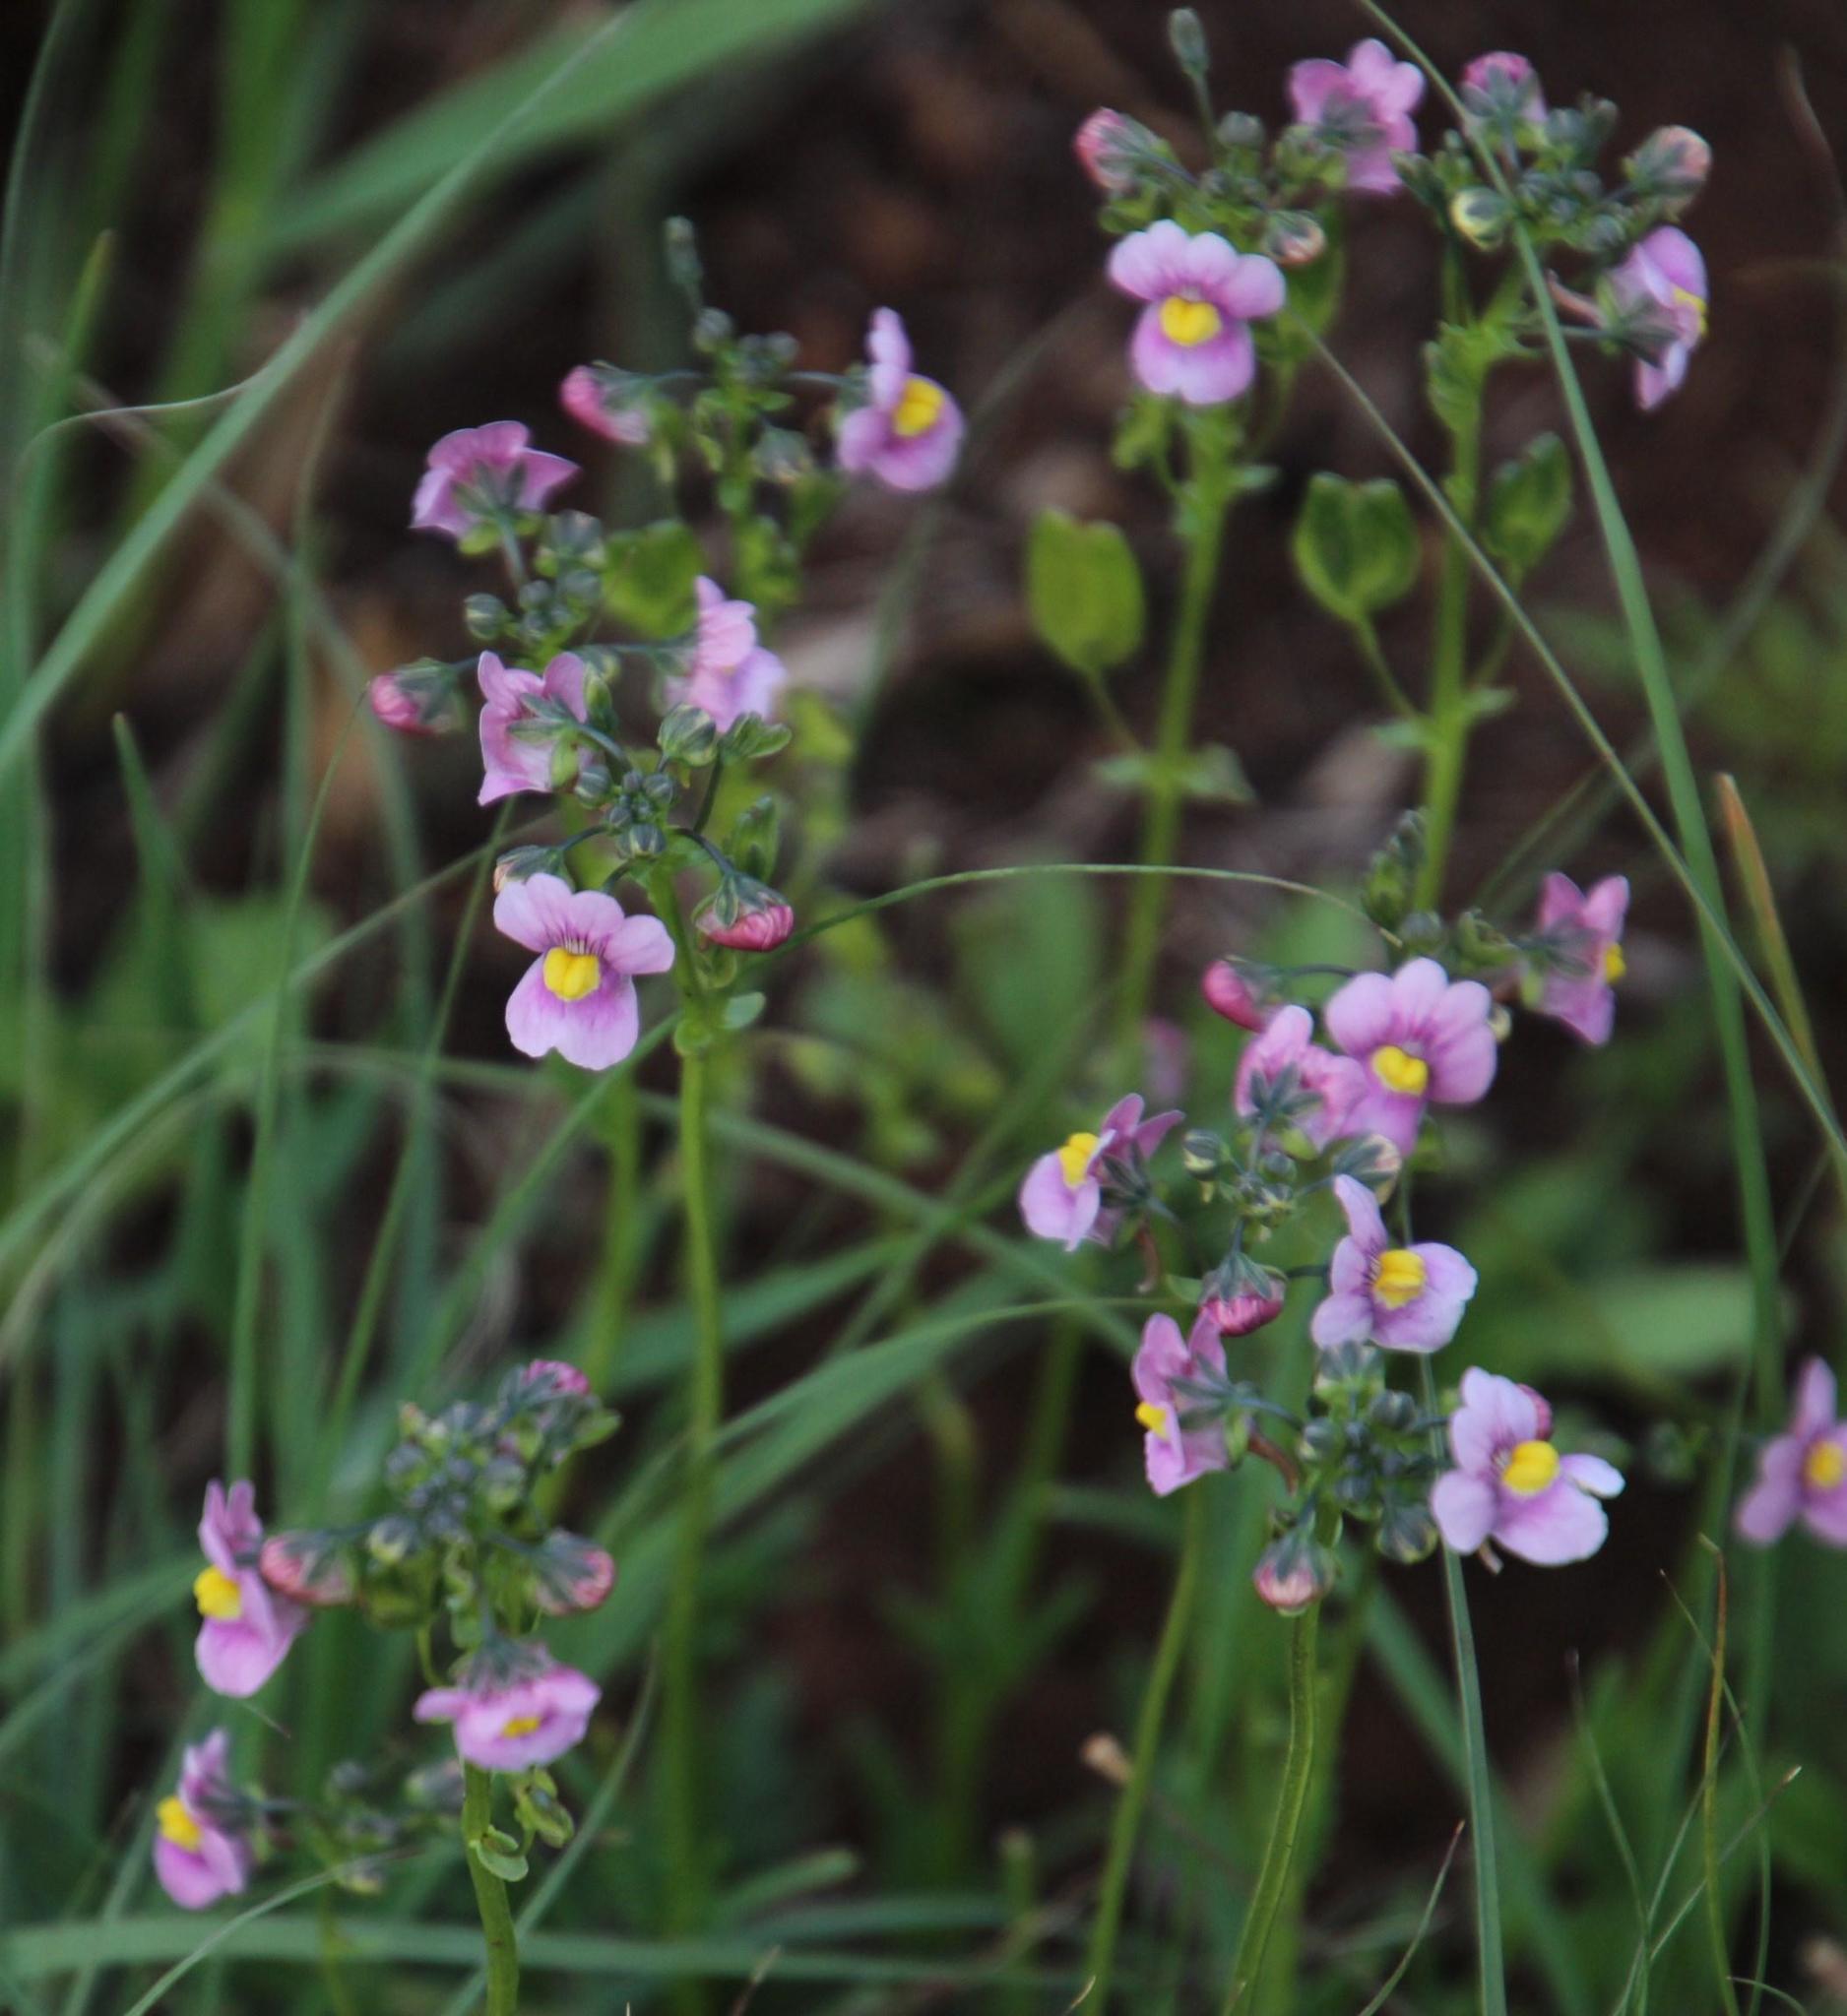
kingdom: Plantae
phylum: Tracheophyta
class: Magnoliopsida
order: Lamiales
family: Scrophulariaceae
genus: Nemesia
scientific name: Nemesia fruticans
